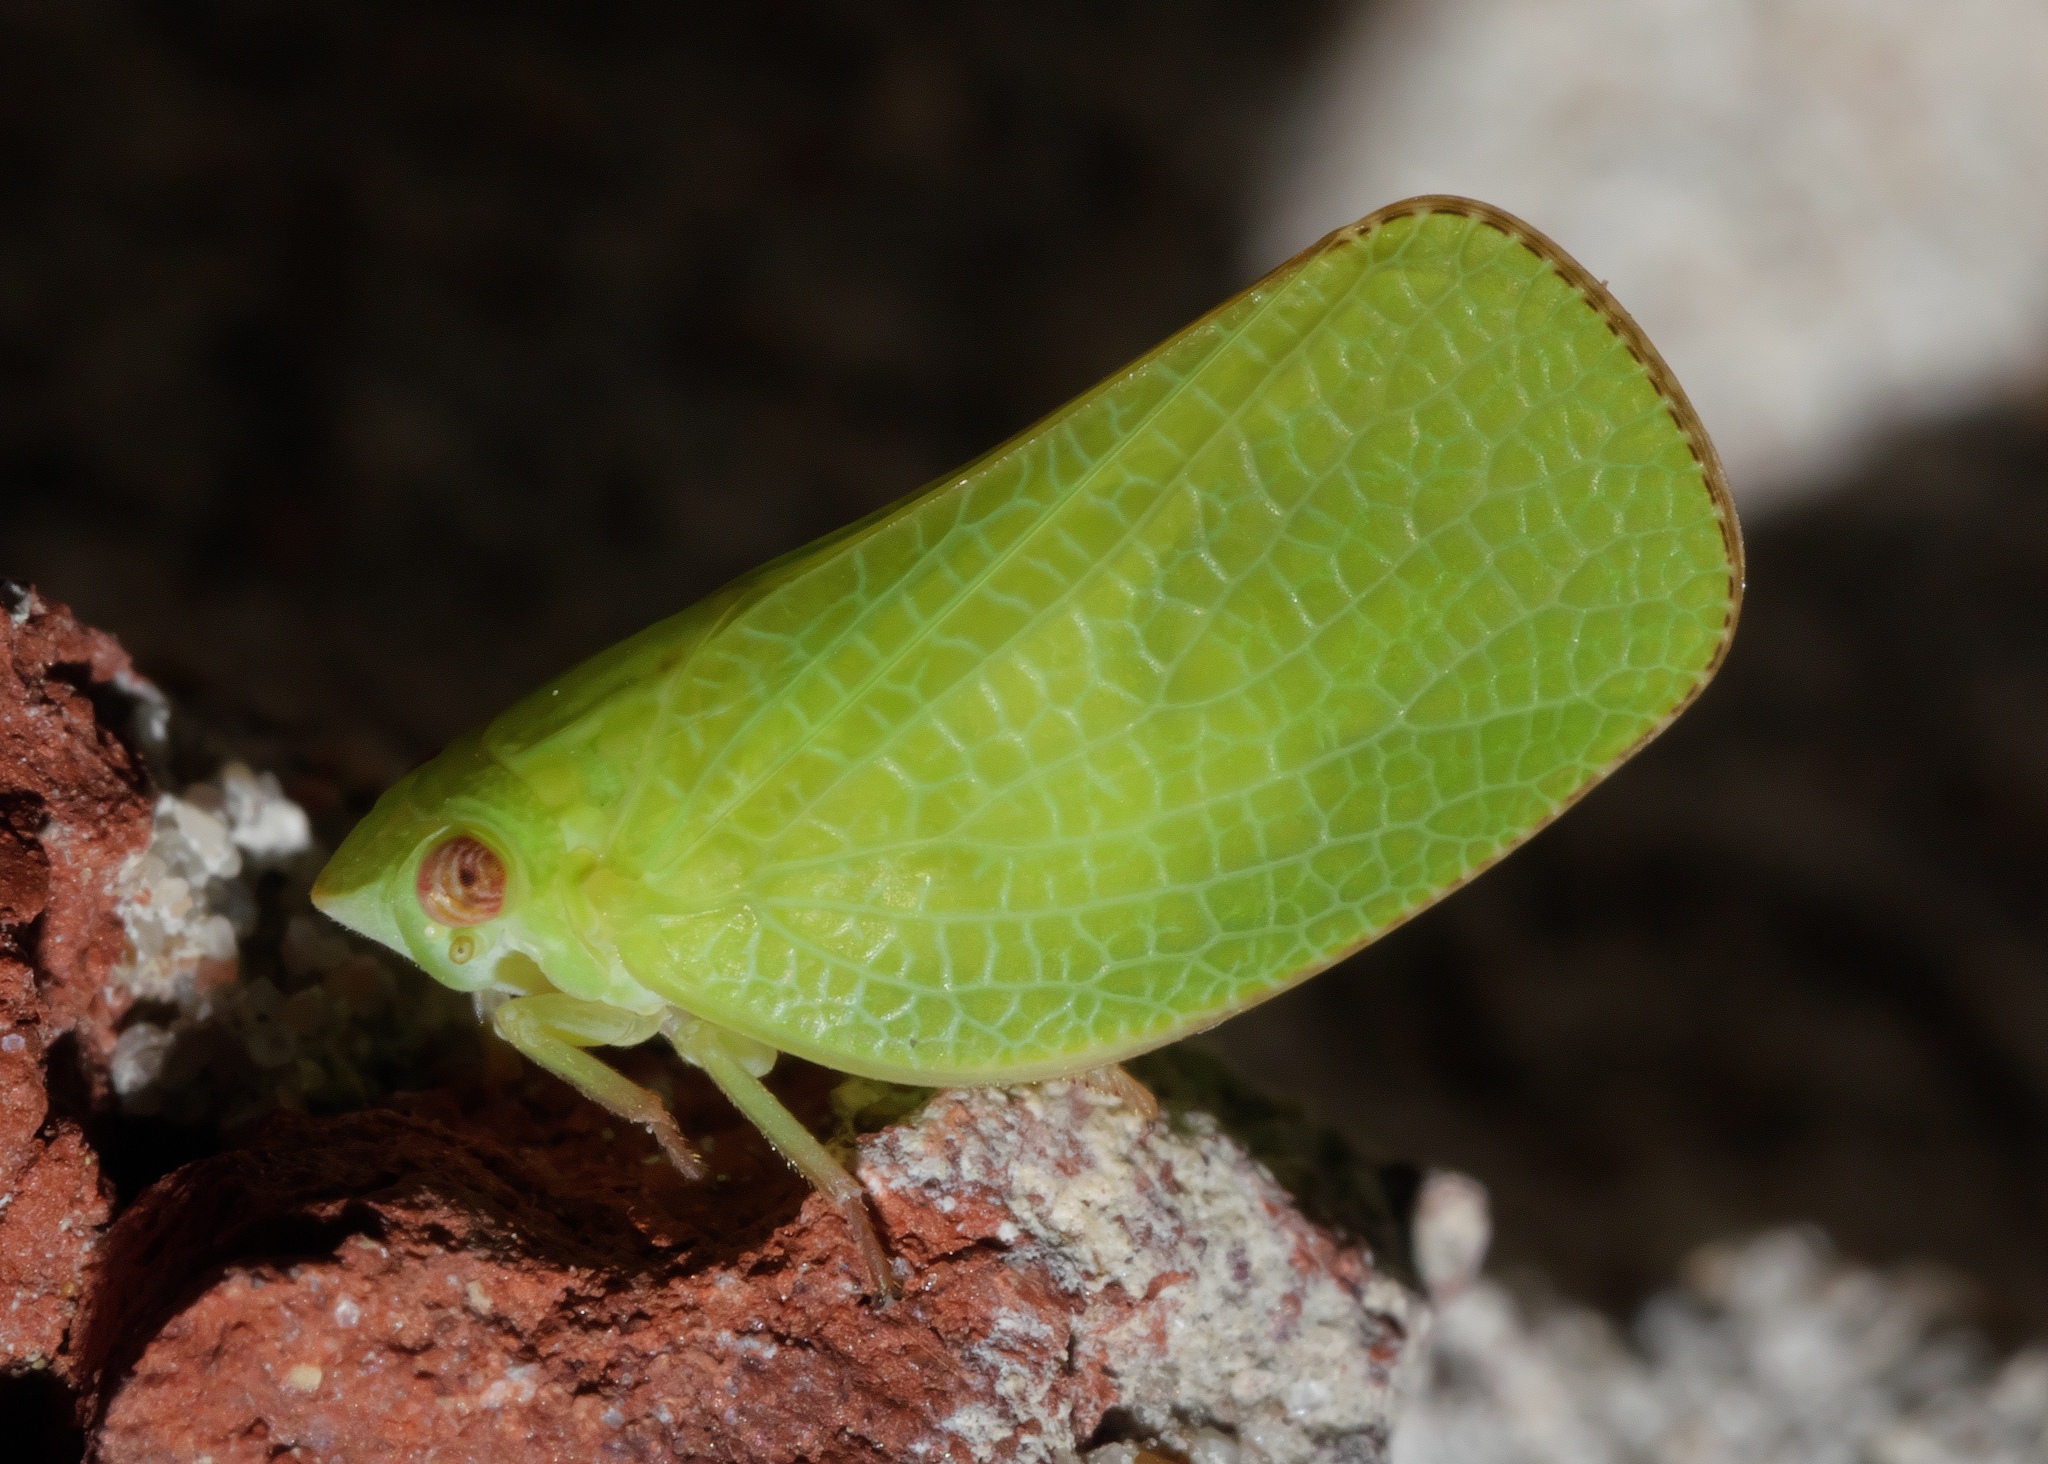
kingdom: Animalia
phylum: Arthropoda
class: Insecta
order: Hemiptera
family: Acanaloniidae
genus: Acanalonia
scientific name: Acanalonia conica
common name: Green cone-headed planthopper
